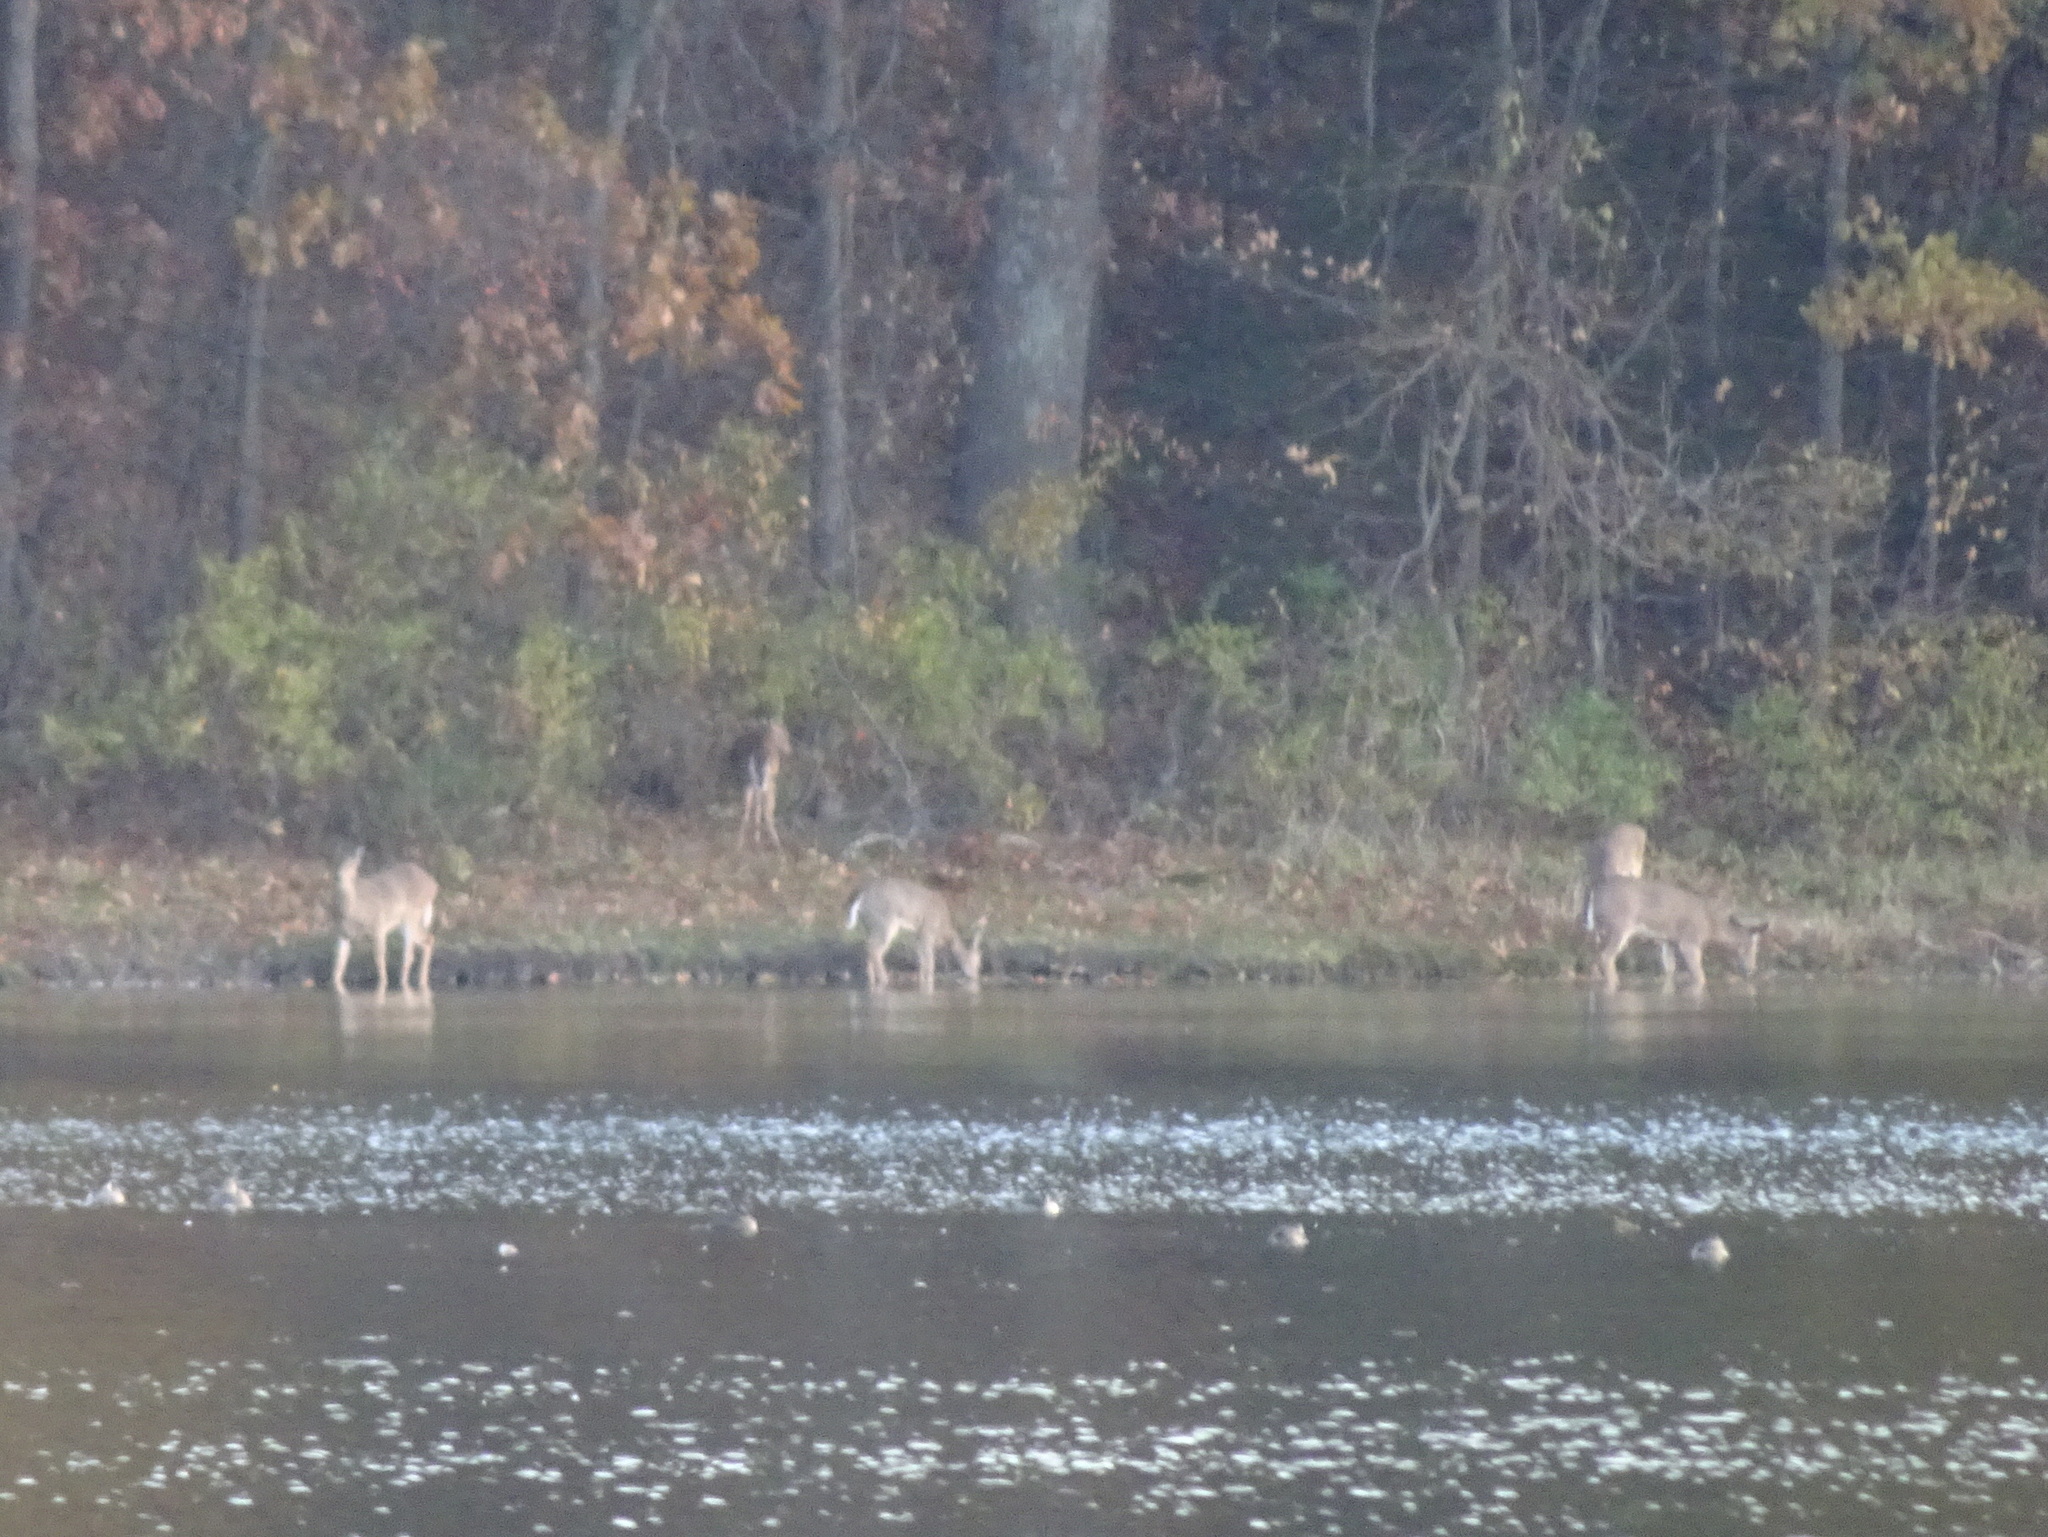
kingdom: Animalia
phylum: Chordata
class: Mammalia
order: Artiodactyla
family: Cervidae
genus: Odocoileus
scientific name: Odocoileus virginianus
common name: White-tailed deer
